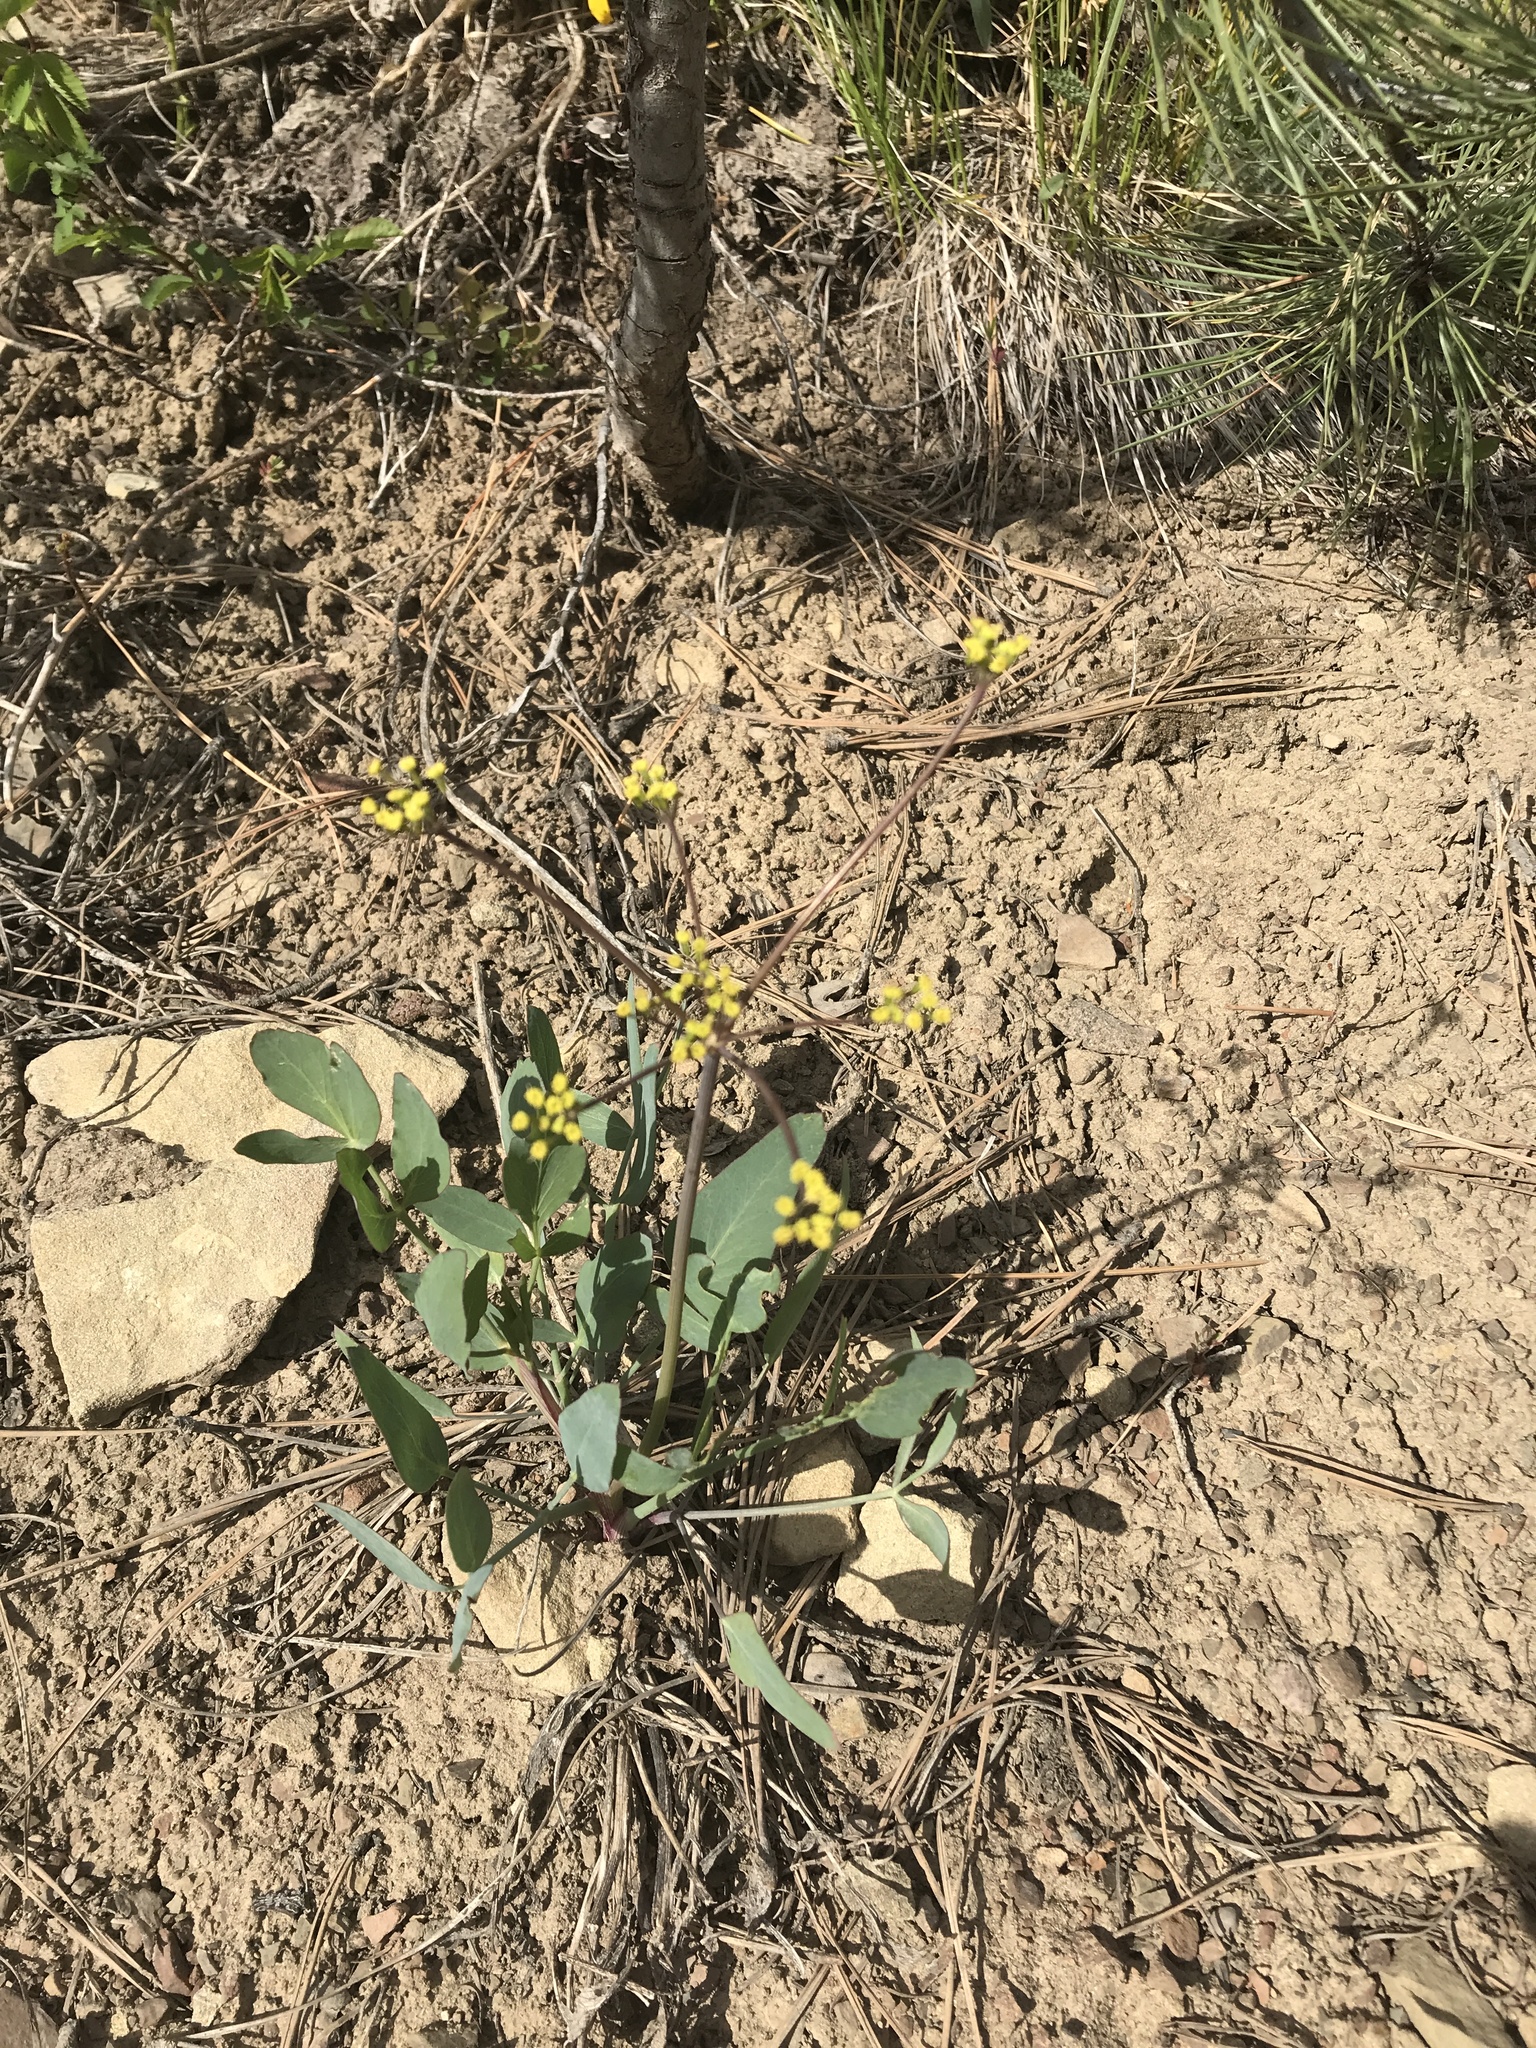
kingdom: Plantae
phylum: Tracheophyta
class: Magnoliopsida
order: Apiales
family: Apiaceae
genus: Lomatium
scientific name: Lomatium nudicaule
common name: Pestle lomatium
